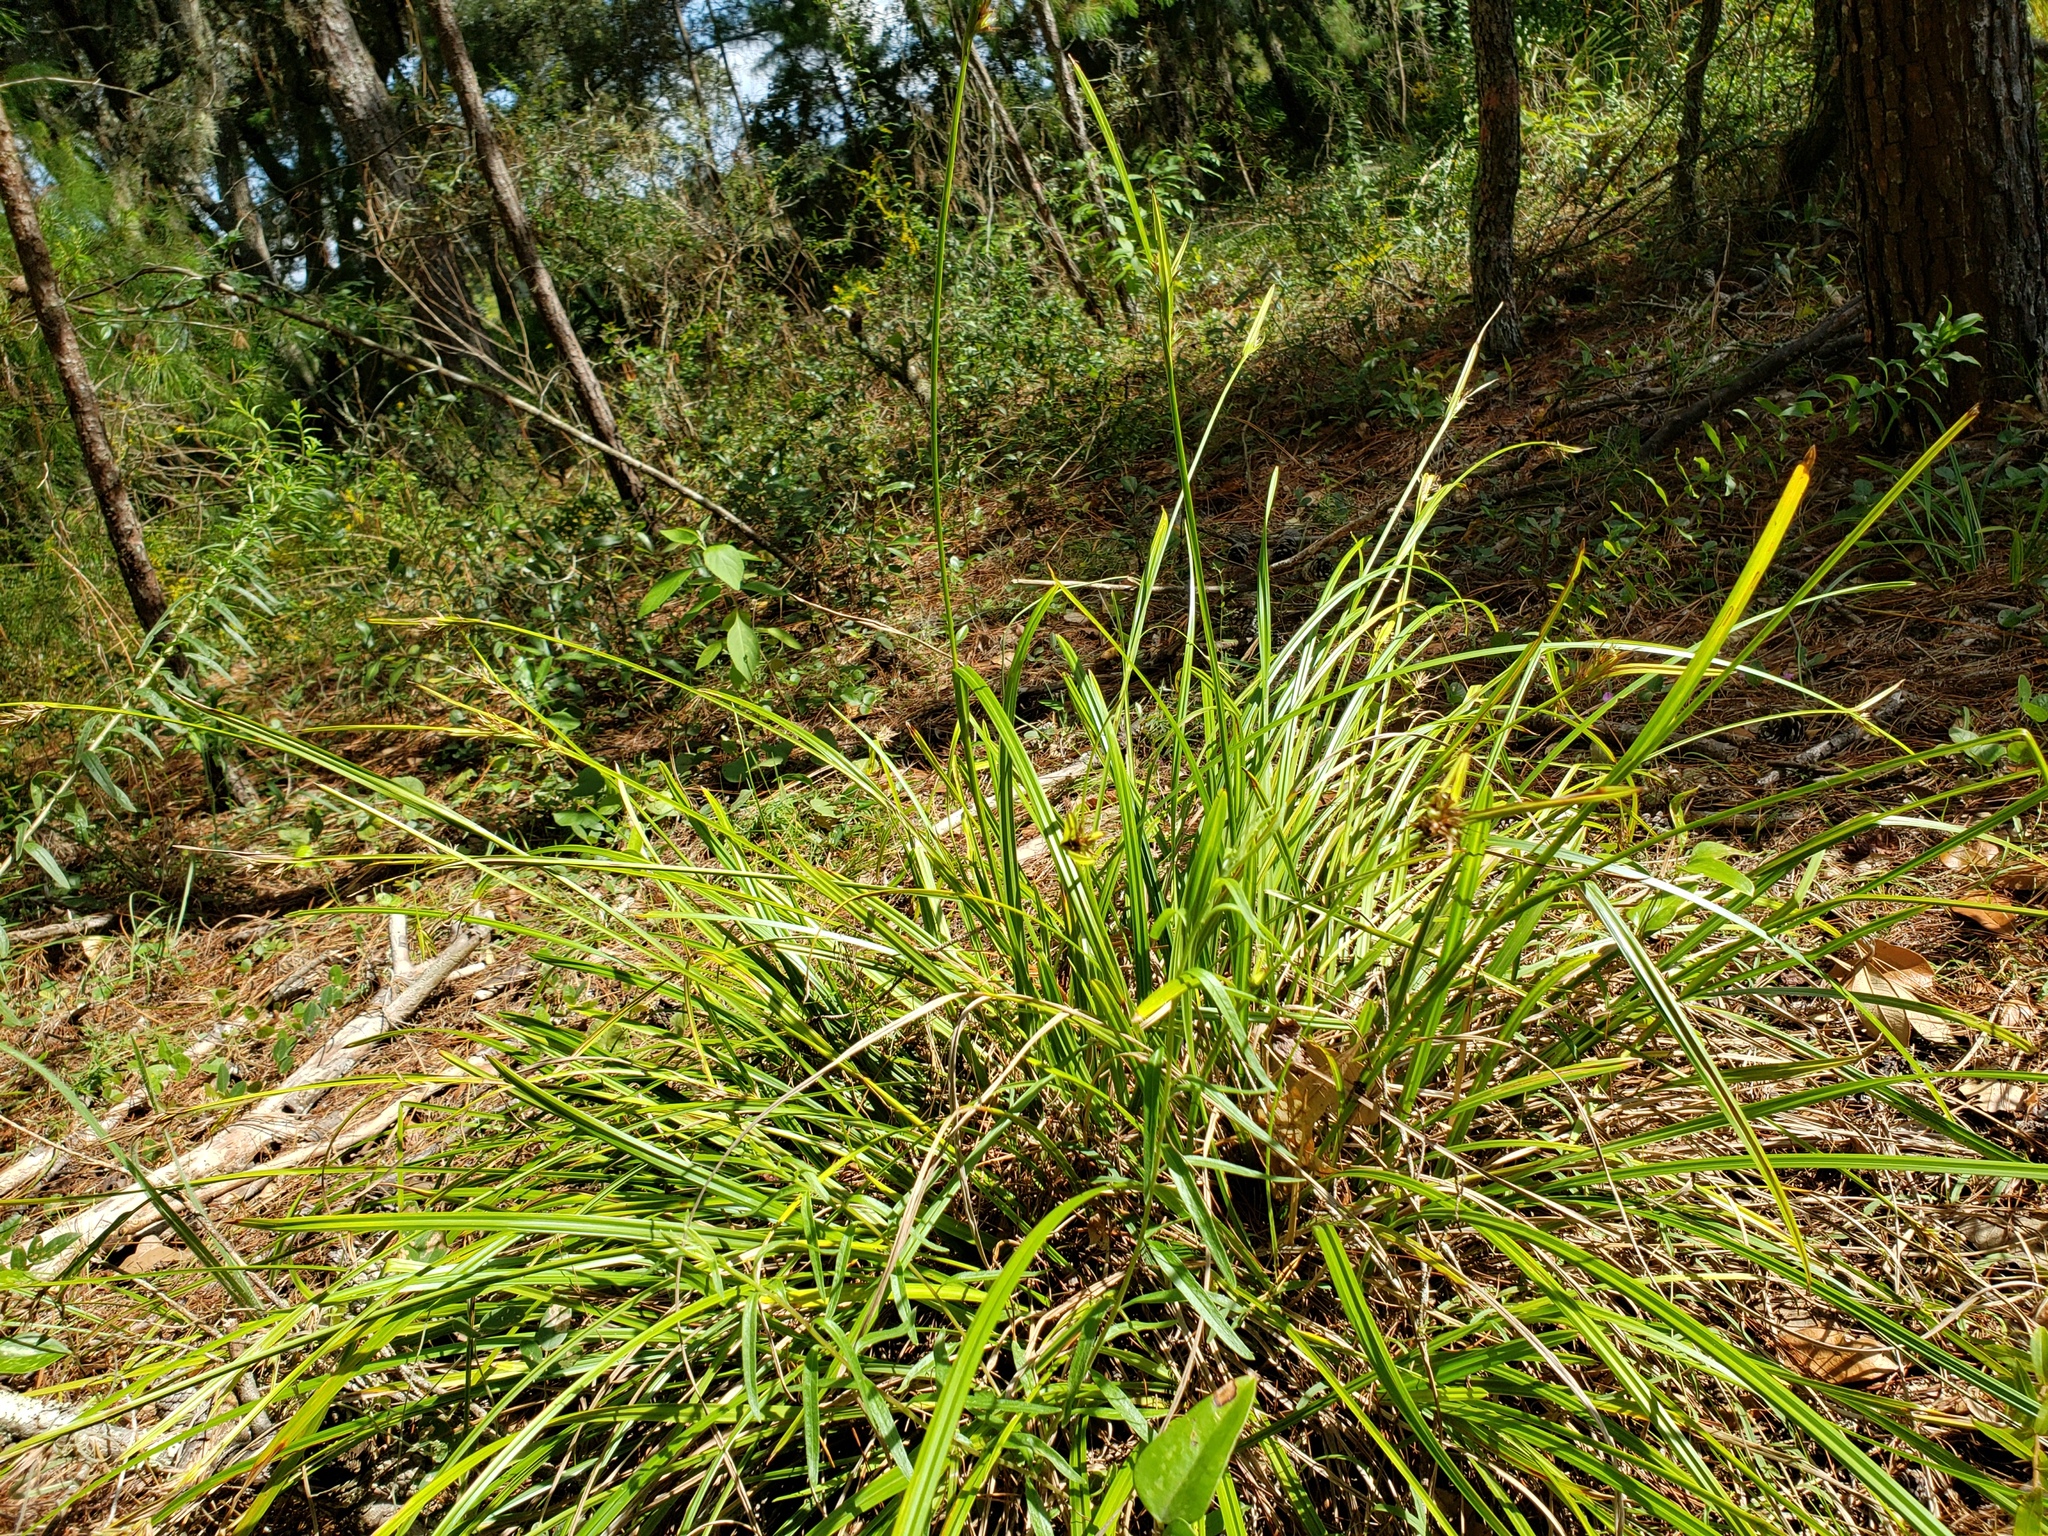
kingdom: Plantae
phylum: Tracheophyta
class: Liliopsida
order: Poales
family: Cyperaceae
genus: Scleria
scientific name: Scleria triglomerata
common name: Whip nutrush
